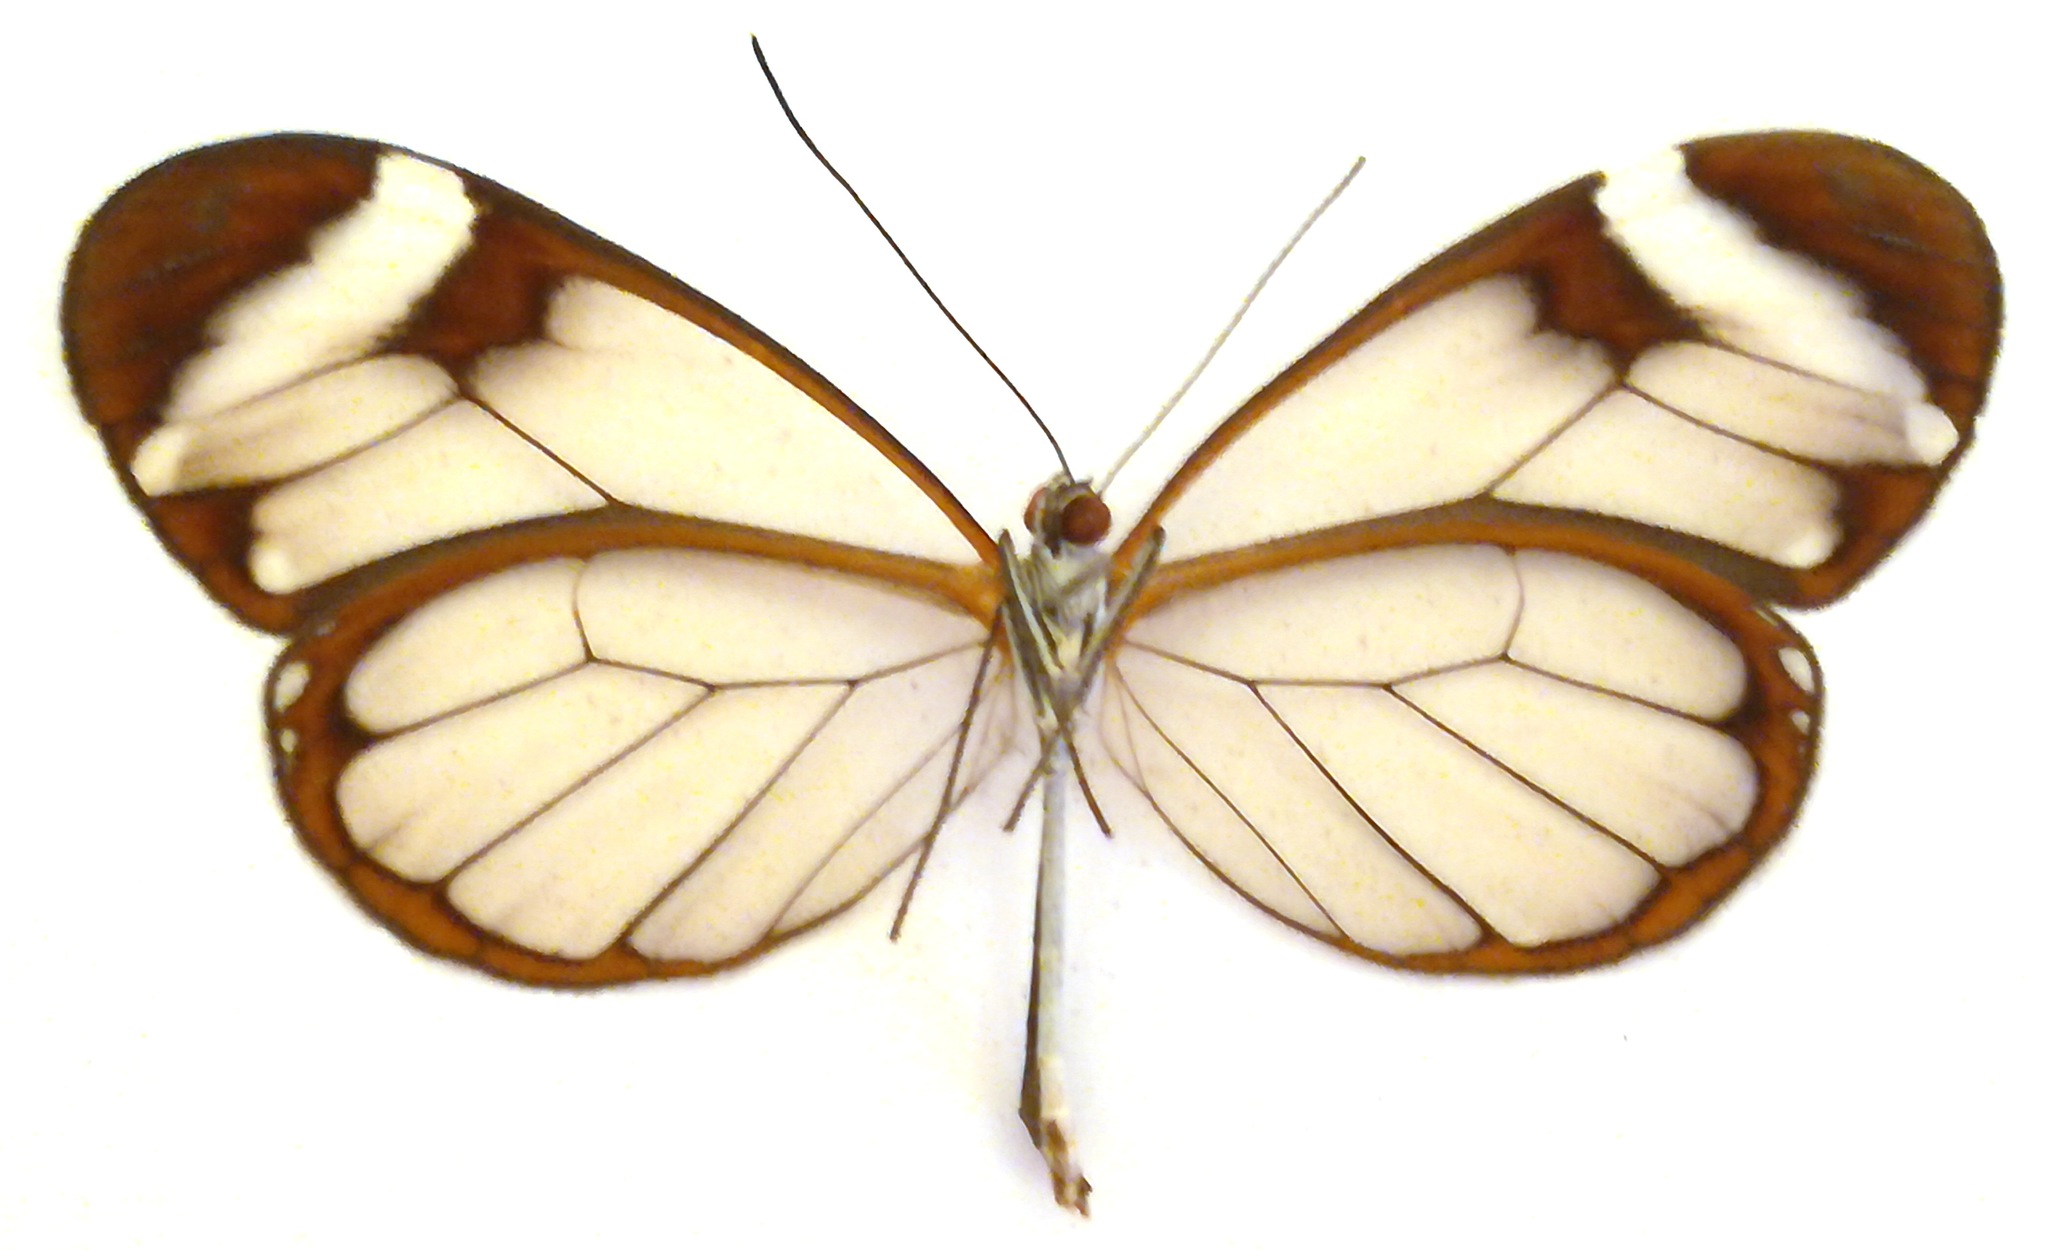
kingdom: Animalia
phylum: Arthropoda
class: Insecta
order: Lepidoptera
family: Nymphalidae
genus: Greta
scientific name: Greta morgane
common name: Thick-tipped greta
